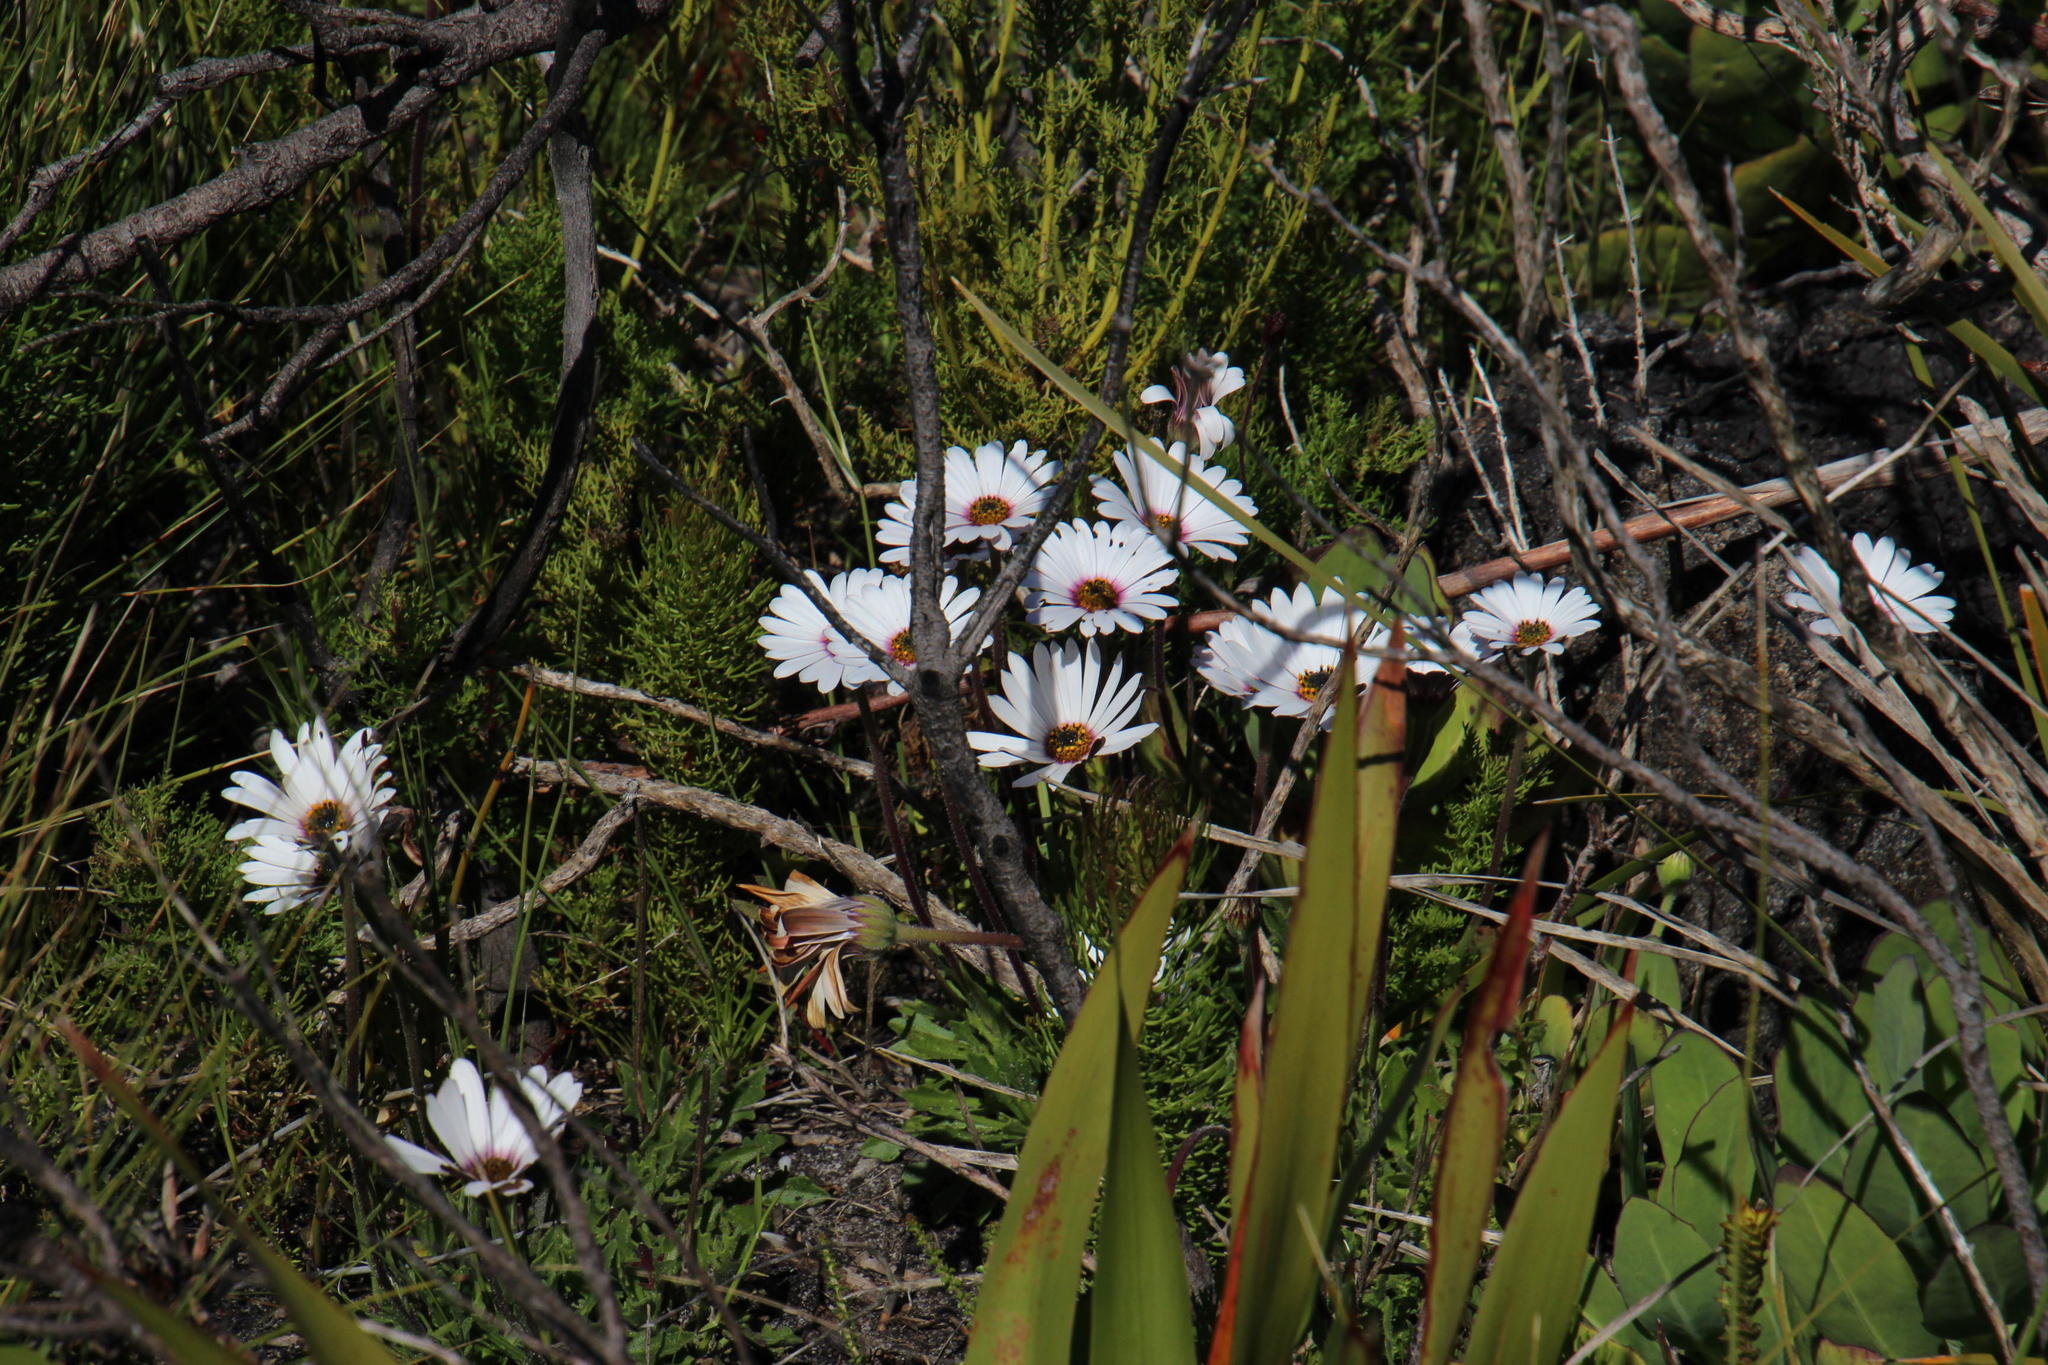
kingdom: Plantae
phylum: Tracheophyta
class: Magnoliopsida
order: Asterales
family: Asteraceae
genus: Dimorphotheca
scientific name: Dimorphotheca nudicaulis
